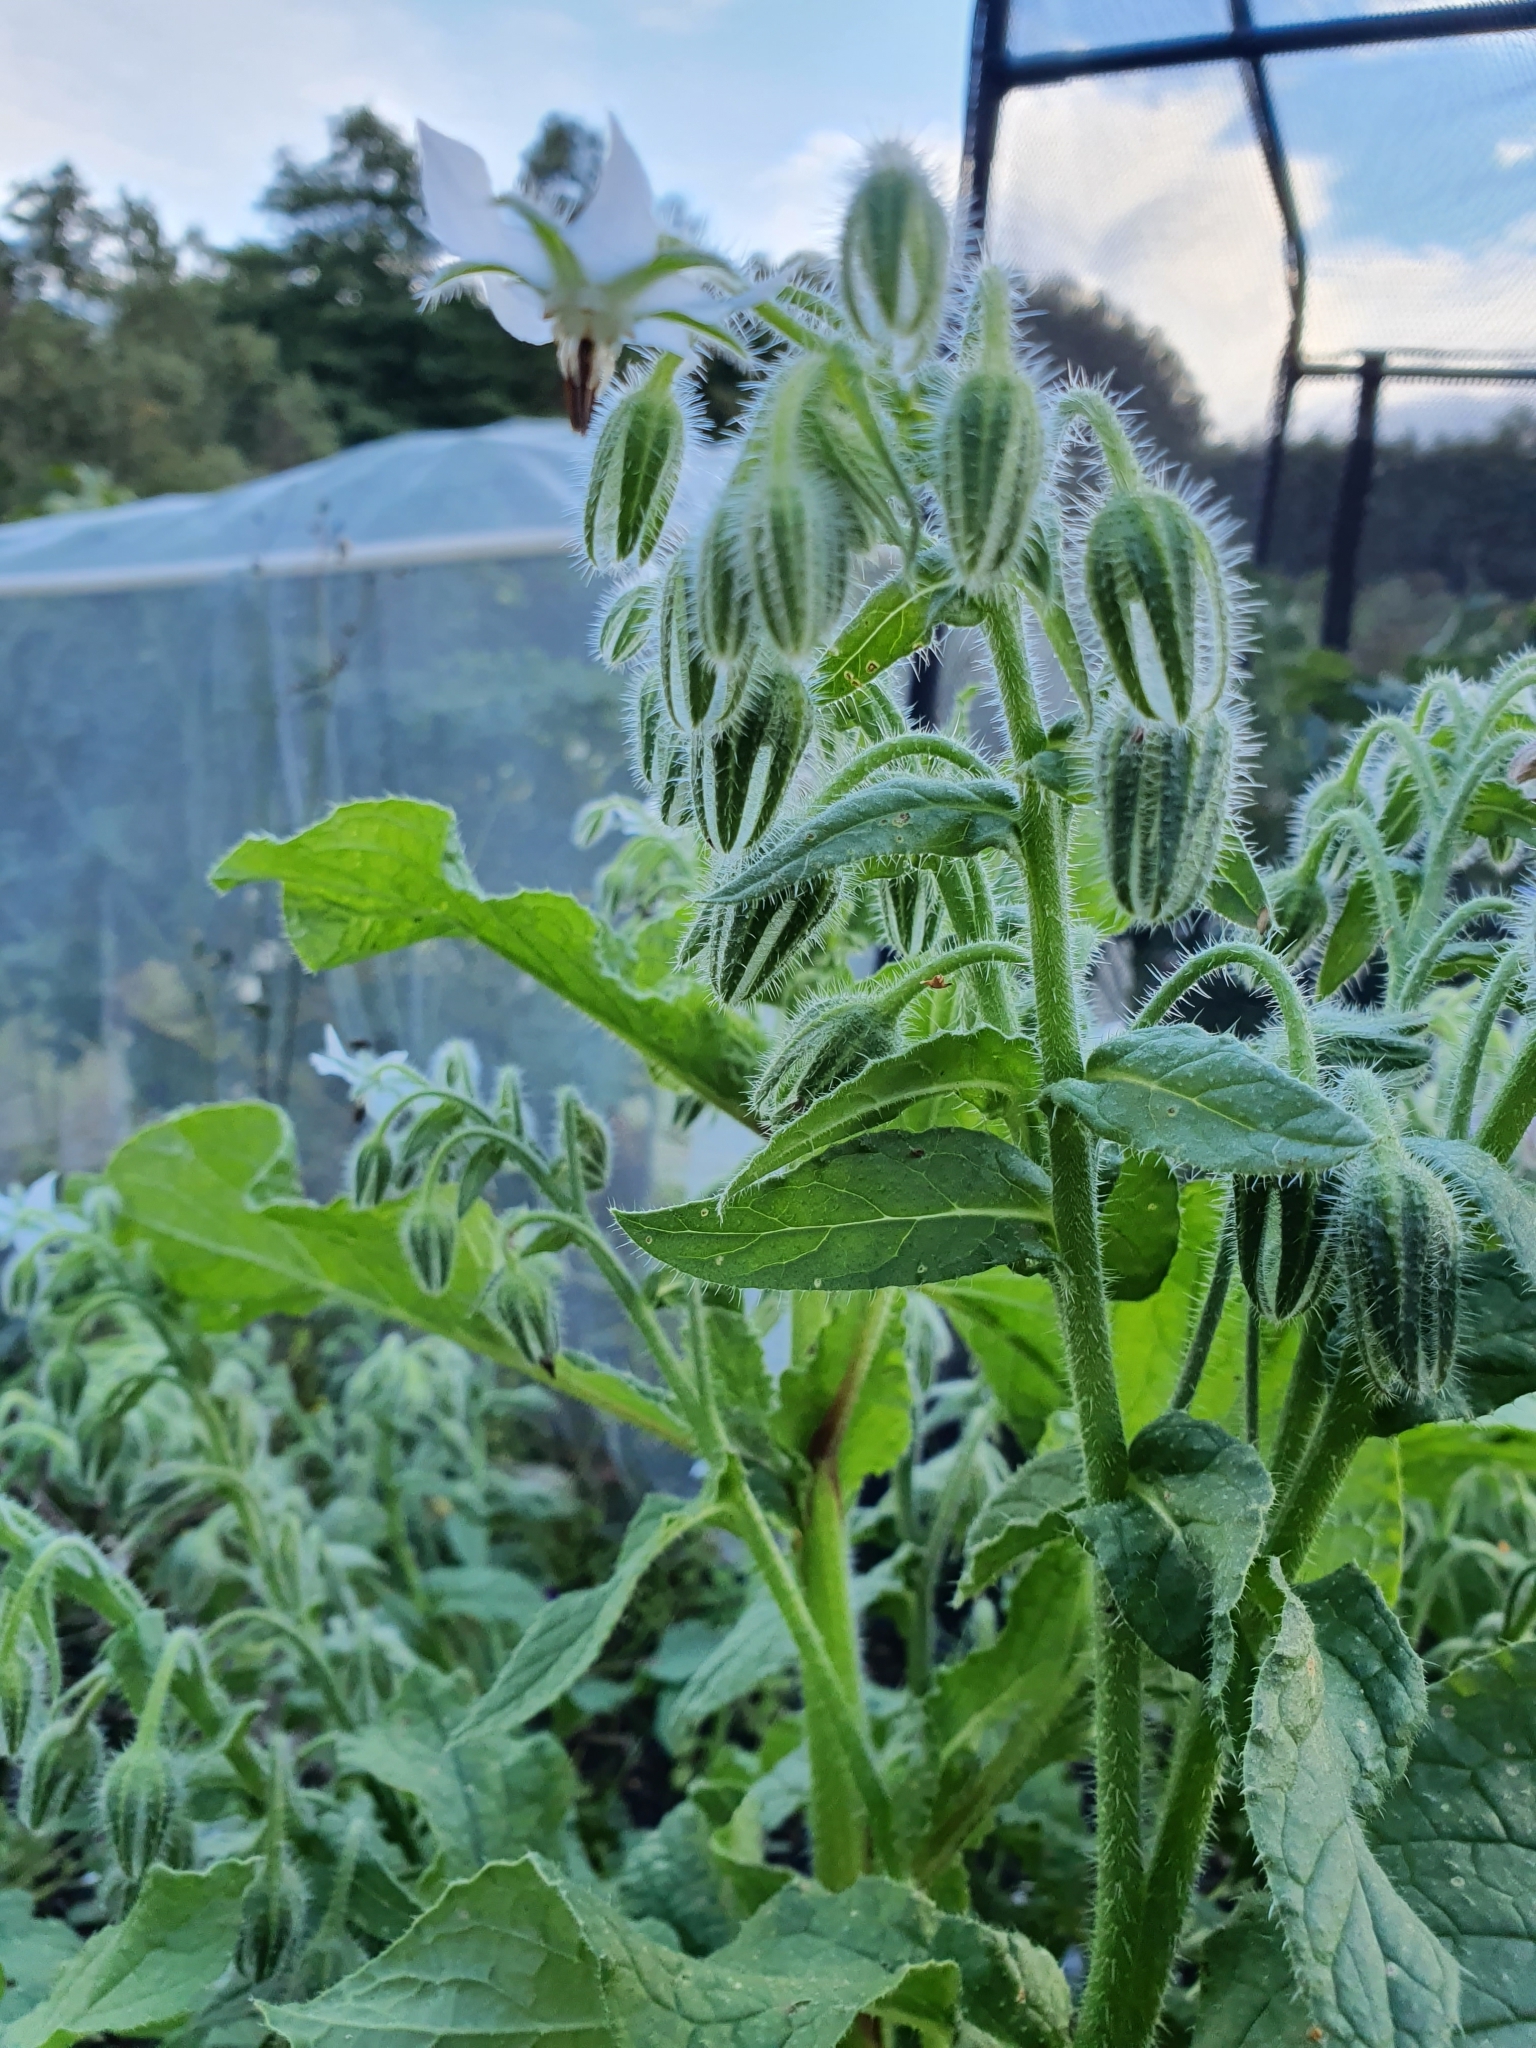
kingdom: Plantae
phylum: Tracheophyta
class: Magnoliopsida
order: Boraginales
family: Boraginaceae
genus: Borago
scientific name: Borago officinalis
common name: Borage
